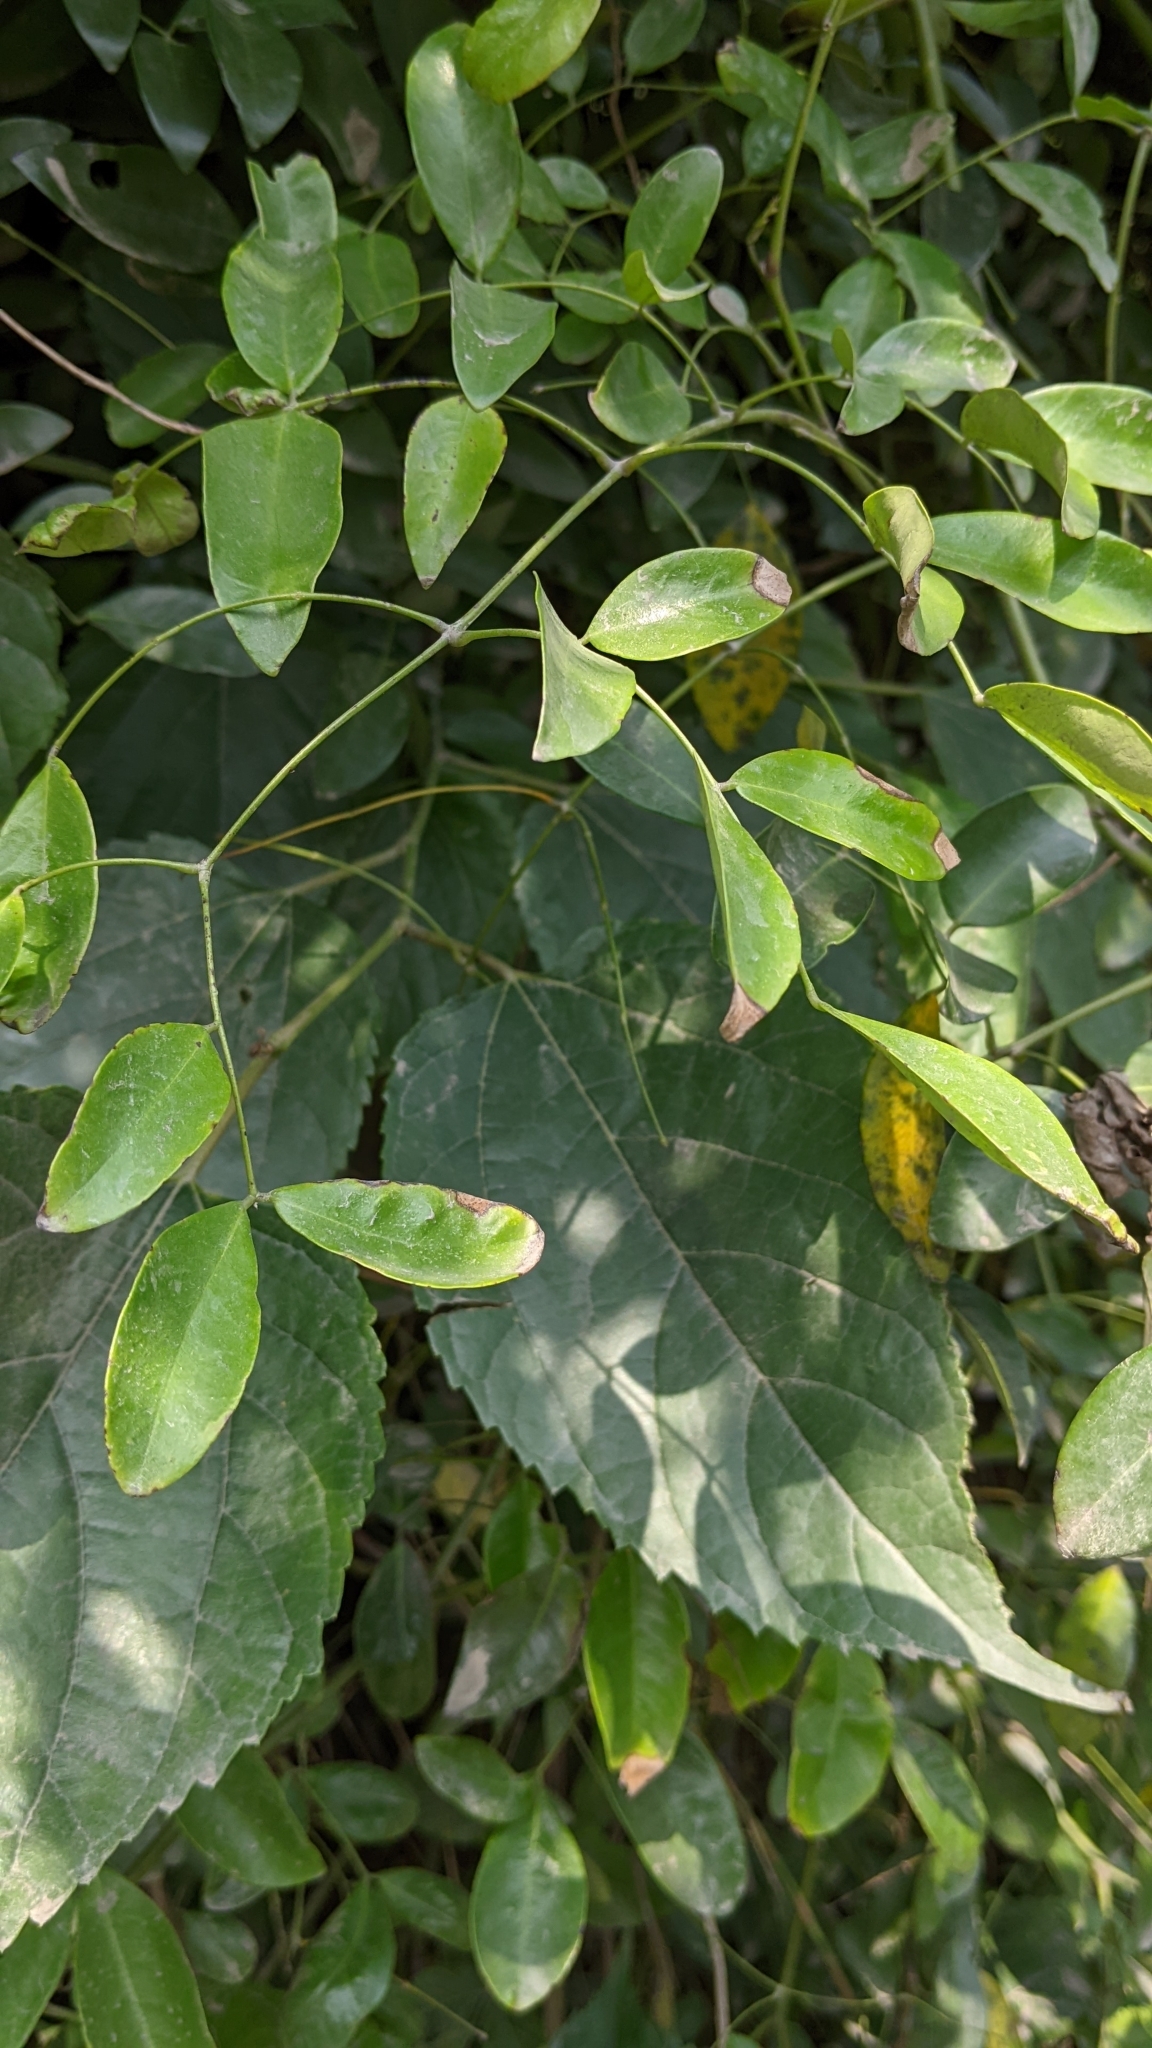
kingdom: Plantae
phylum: Tracheophyta
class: Magnoliopsida
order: Fabales
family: Fabaceae
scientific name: Fabaceae
